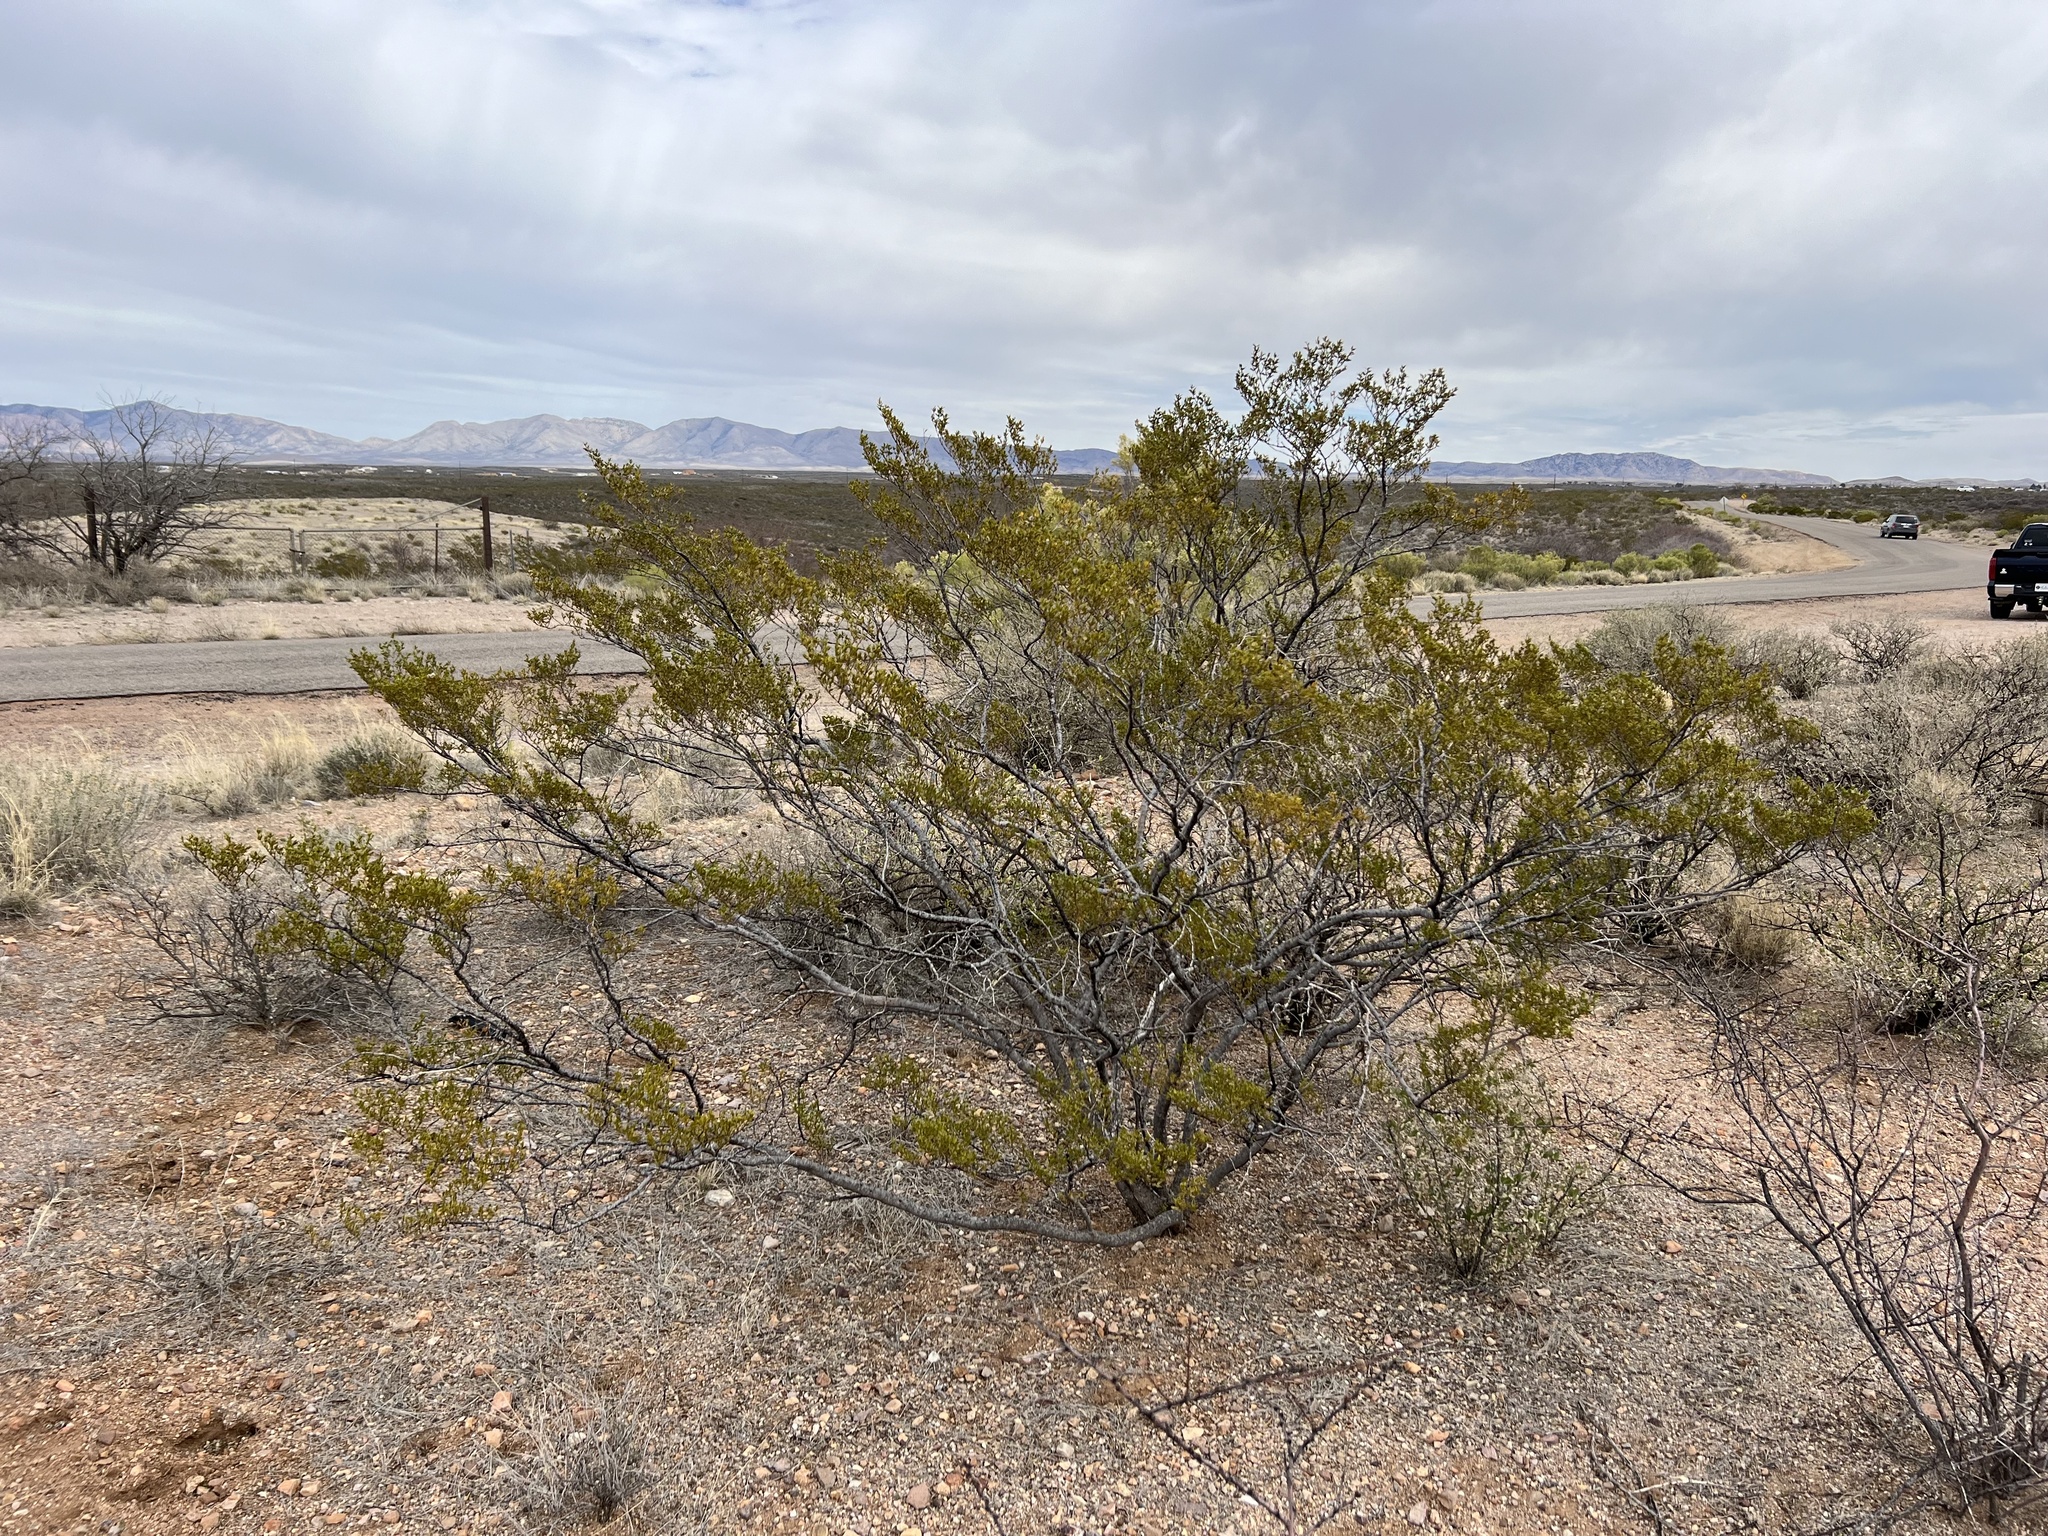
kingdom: Plantae
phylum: Tracheophyta
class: Magnoliopsida
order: Zygophyllales
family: Zygophyllaceae
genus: Larrea
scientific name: Larrea tridentata
